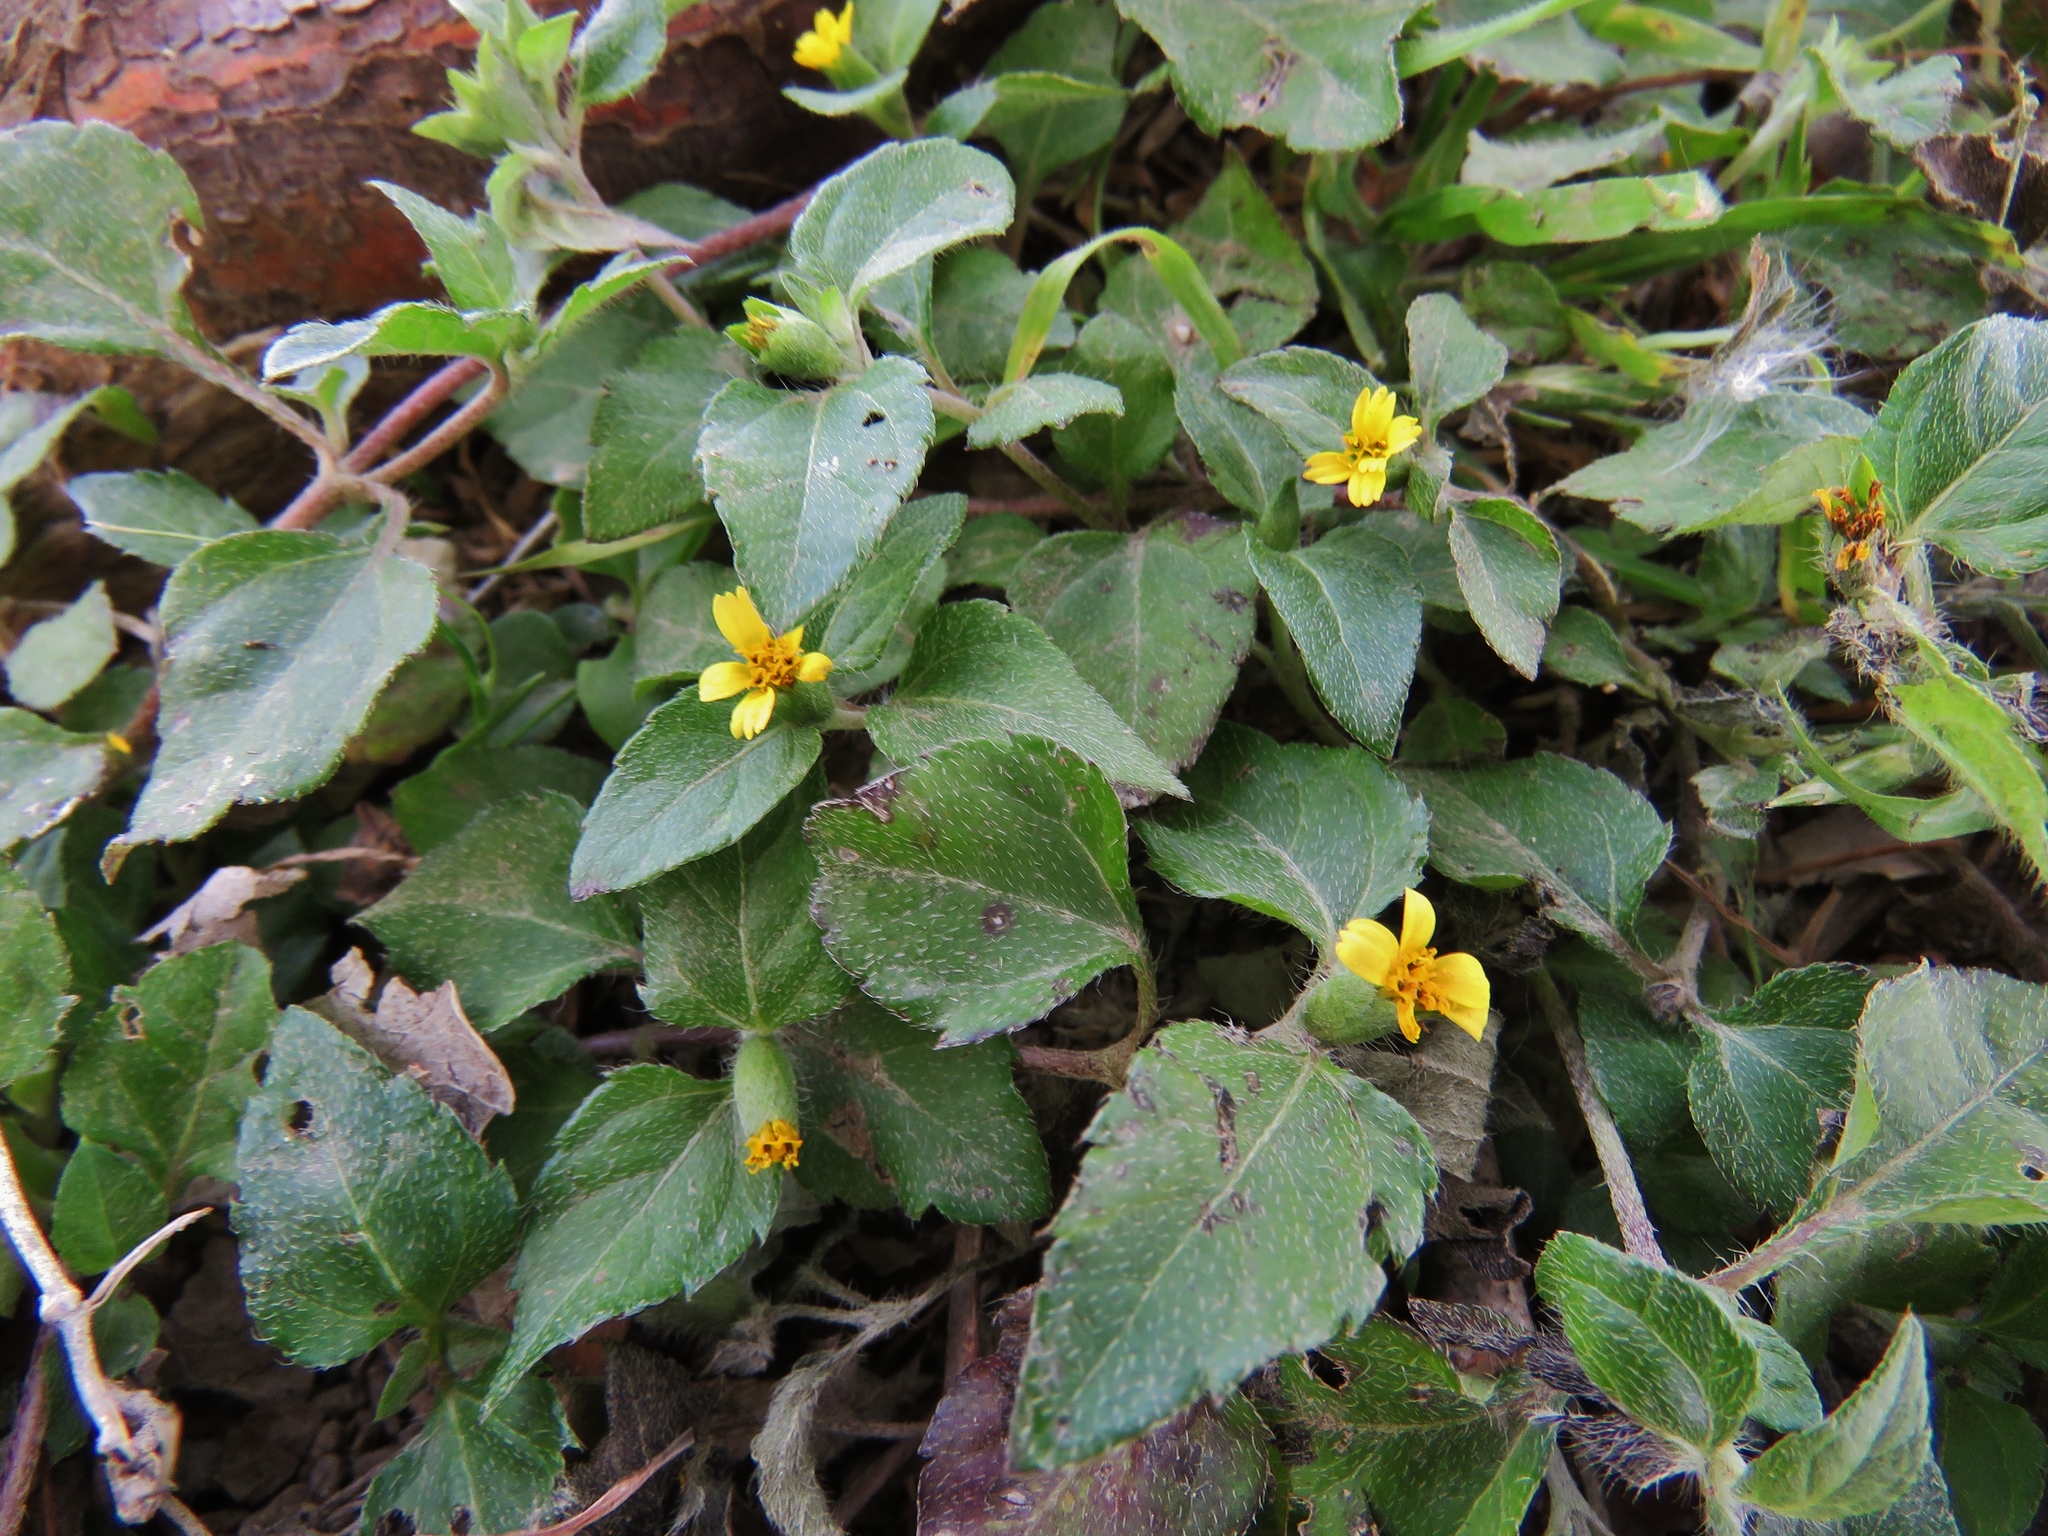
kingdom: Plantae
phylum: Tracheophyta
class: Magnoliopsida
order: Asterales
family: Asteraceae
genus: Calyptocarpus
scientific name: Calyptocarpus vialis
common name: Straggler daisy
